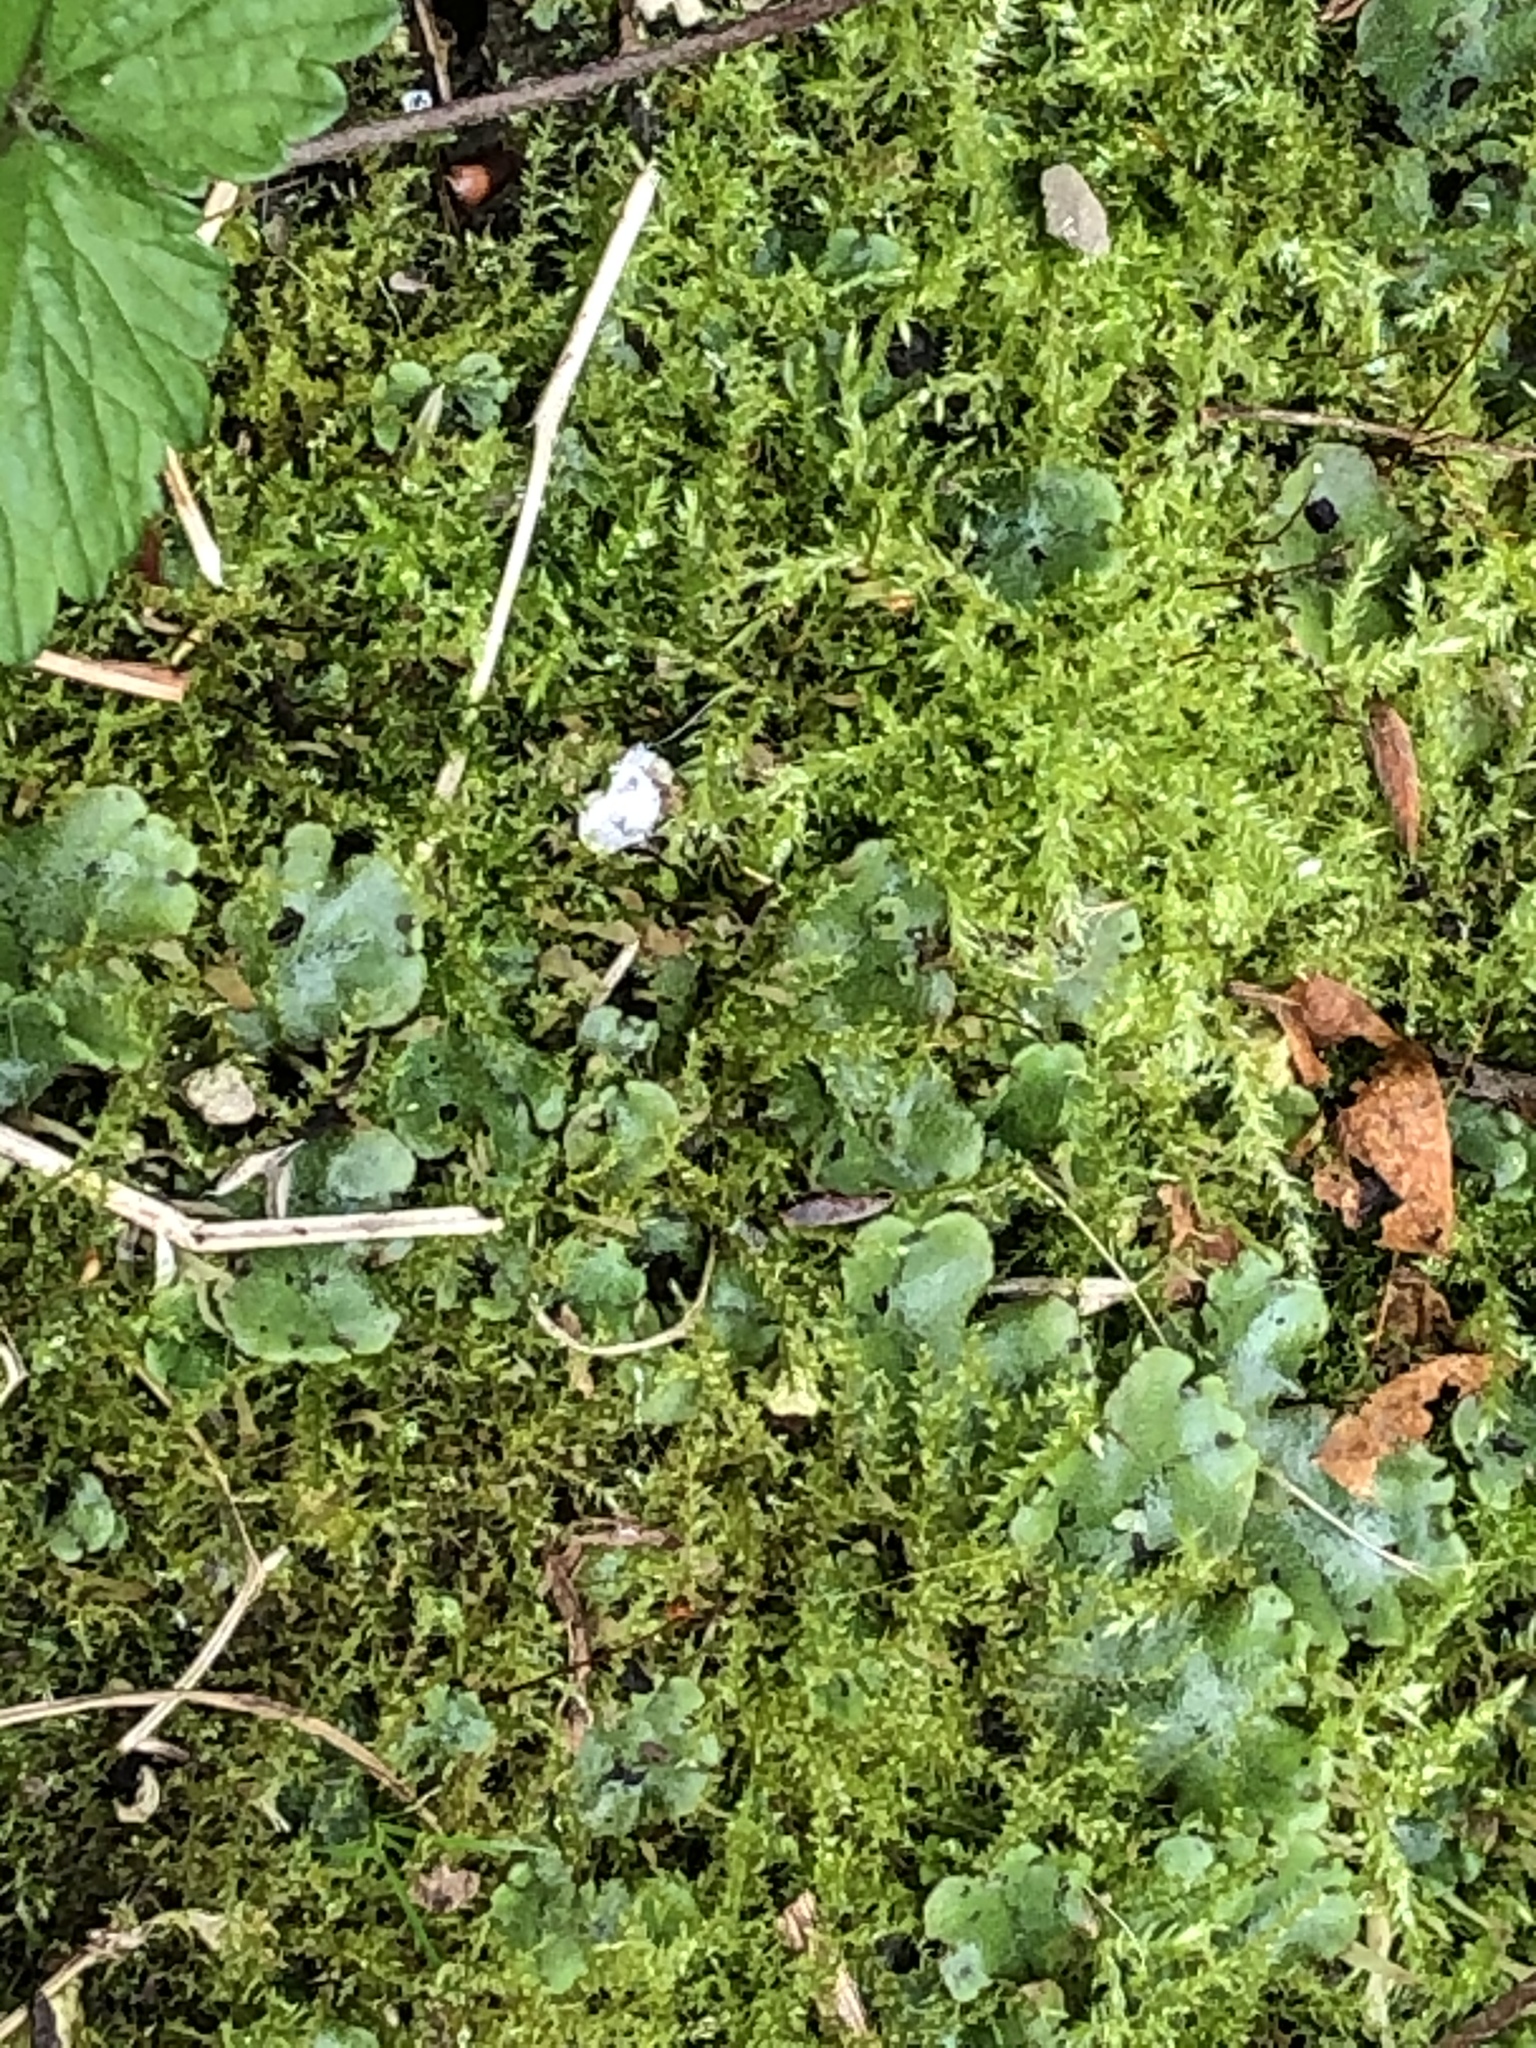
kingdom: Plantae
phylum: Marchantiophyta
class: Marchantiopsida
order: Marchantiales
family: Marchantiaceae
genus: Marchantia
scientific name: Marchantia polymorpha
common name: Common liverwort
